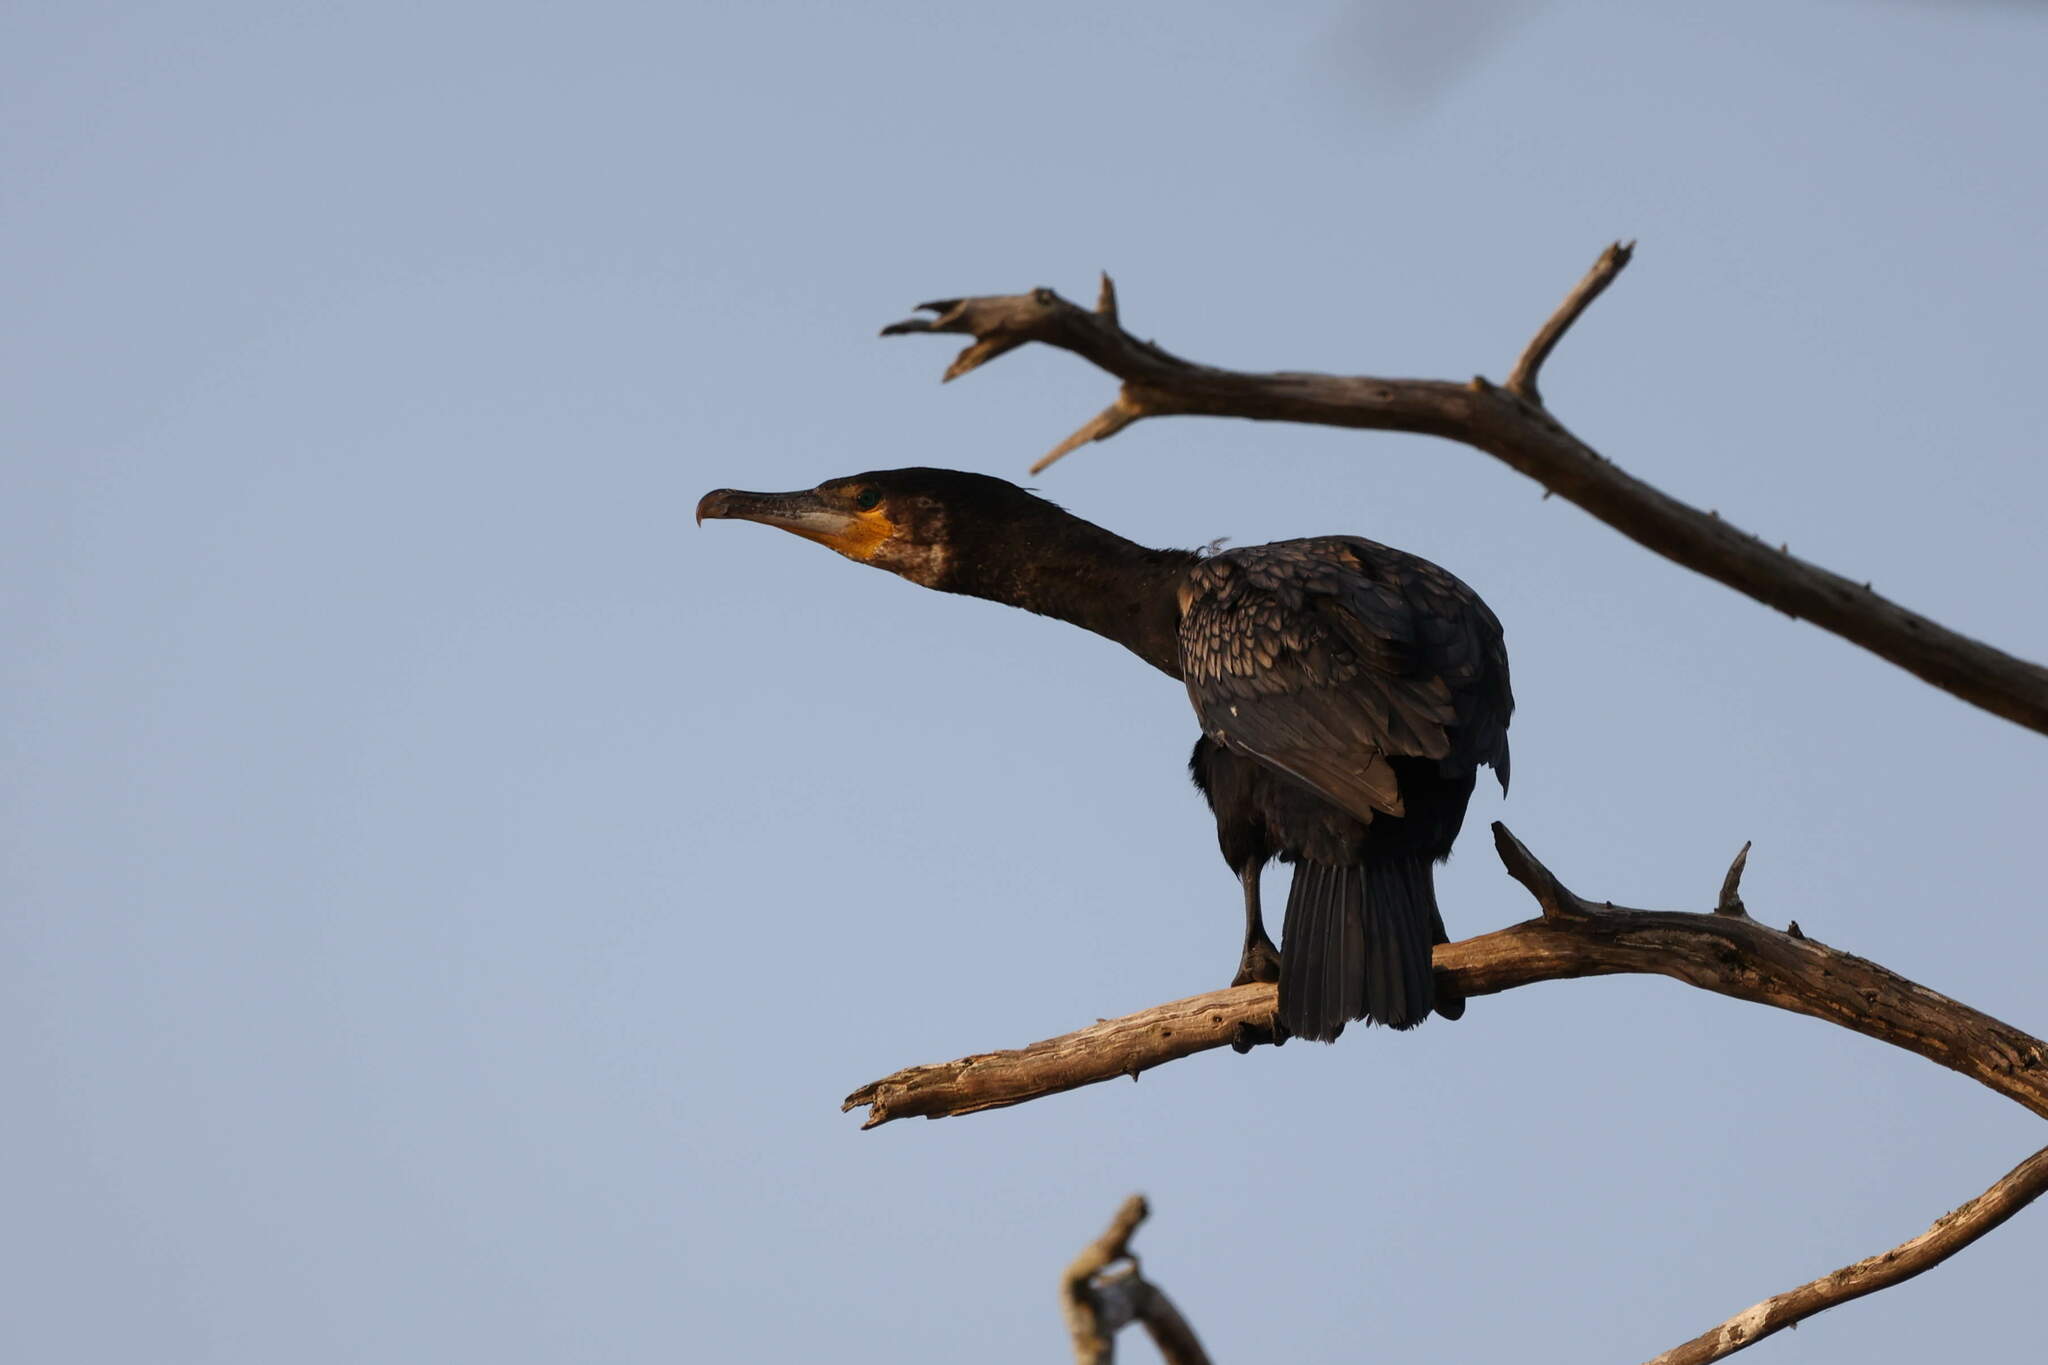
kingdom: Animalia
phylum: Chordata
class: Aves
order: Suliformes
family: Phalacrocoracidae
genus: Phalacrocorax
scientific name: Phalacrocorax carbo
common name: Great cormorant
